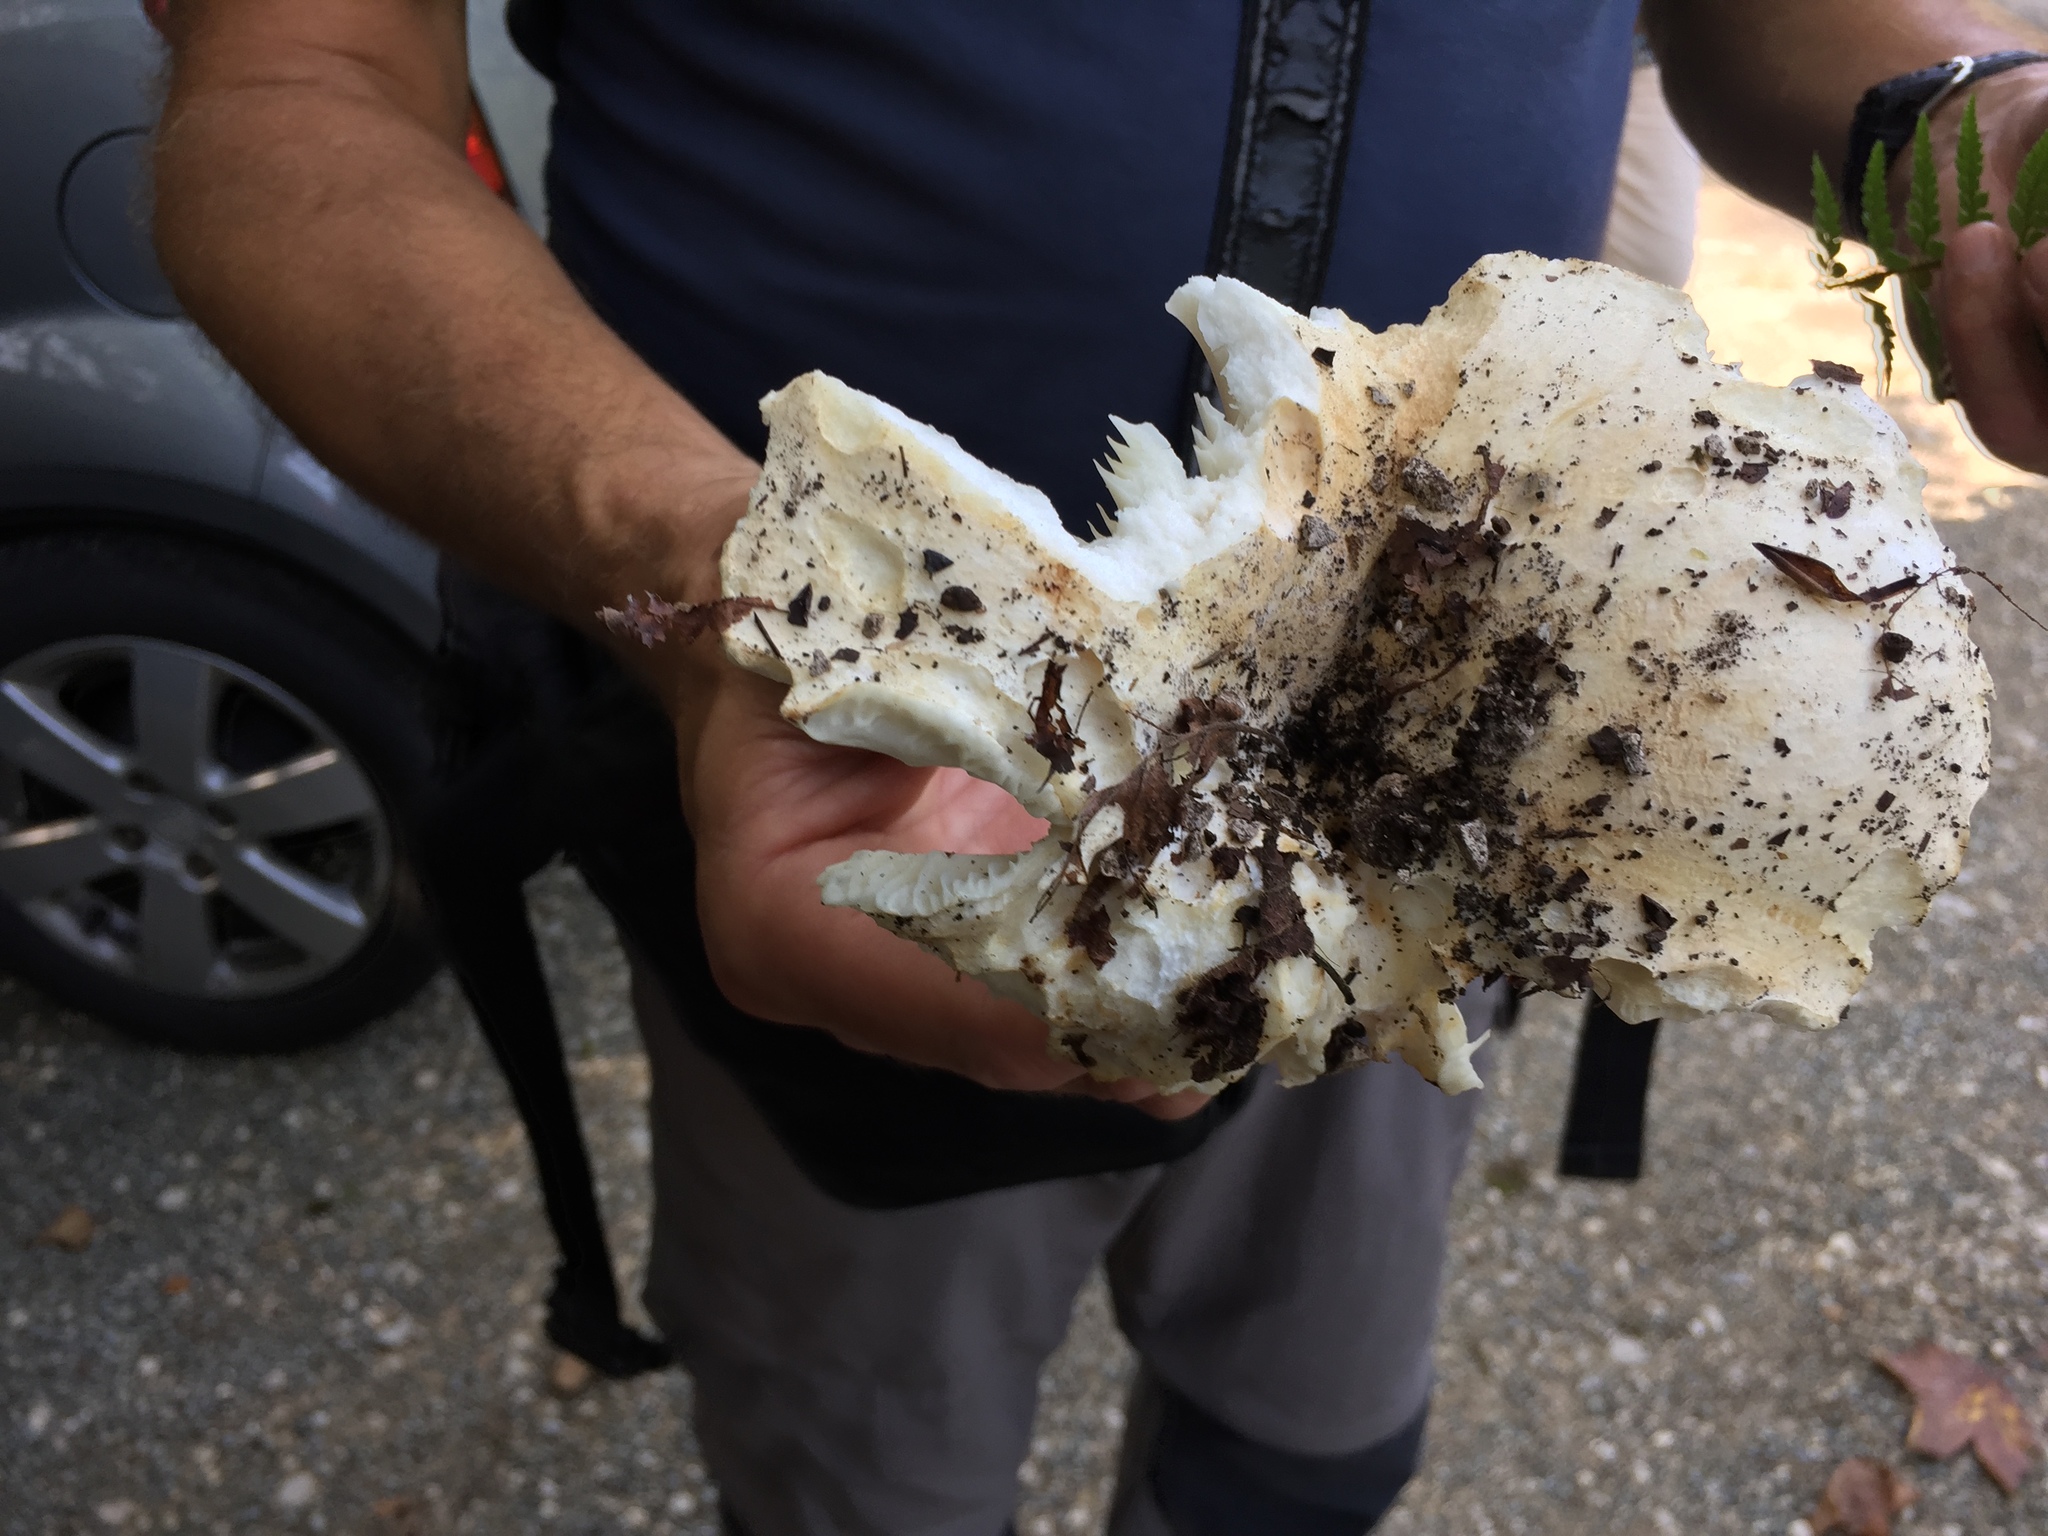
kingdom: Fungi
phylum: Basidiomycota
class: Agaricomycetes
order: Russulales
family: Russulaceae
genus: Russula
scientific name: Russula delica
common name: Milk white brittlegill
